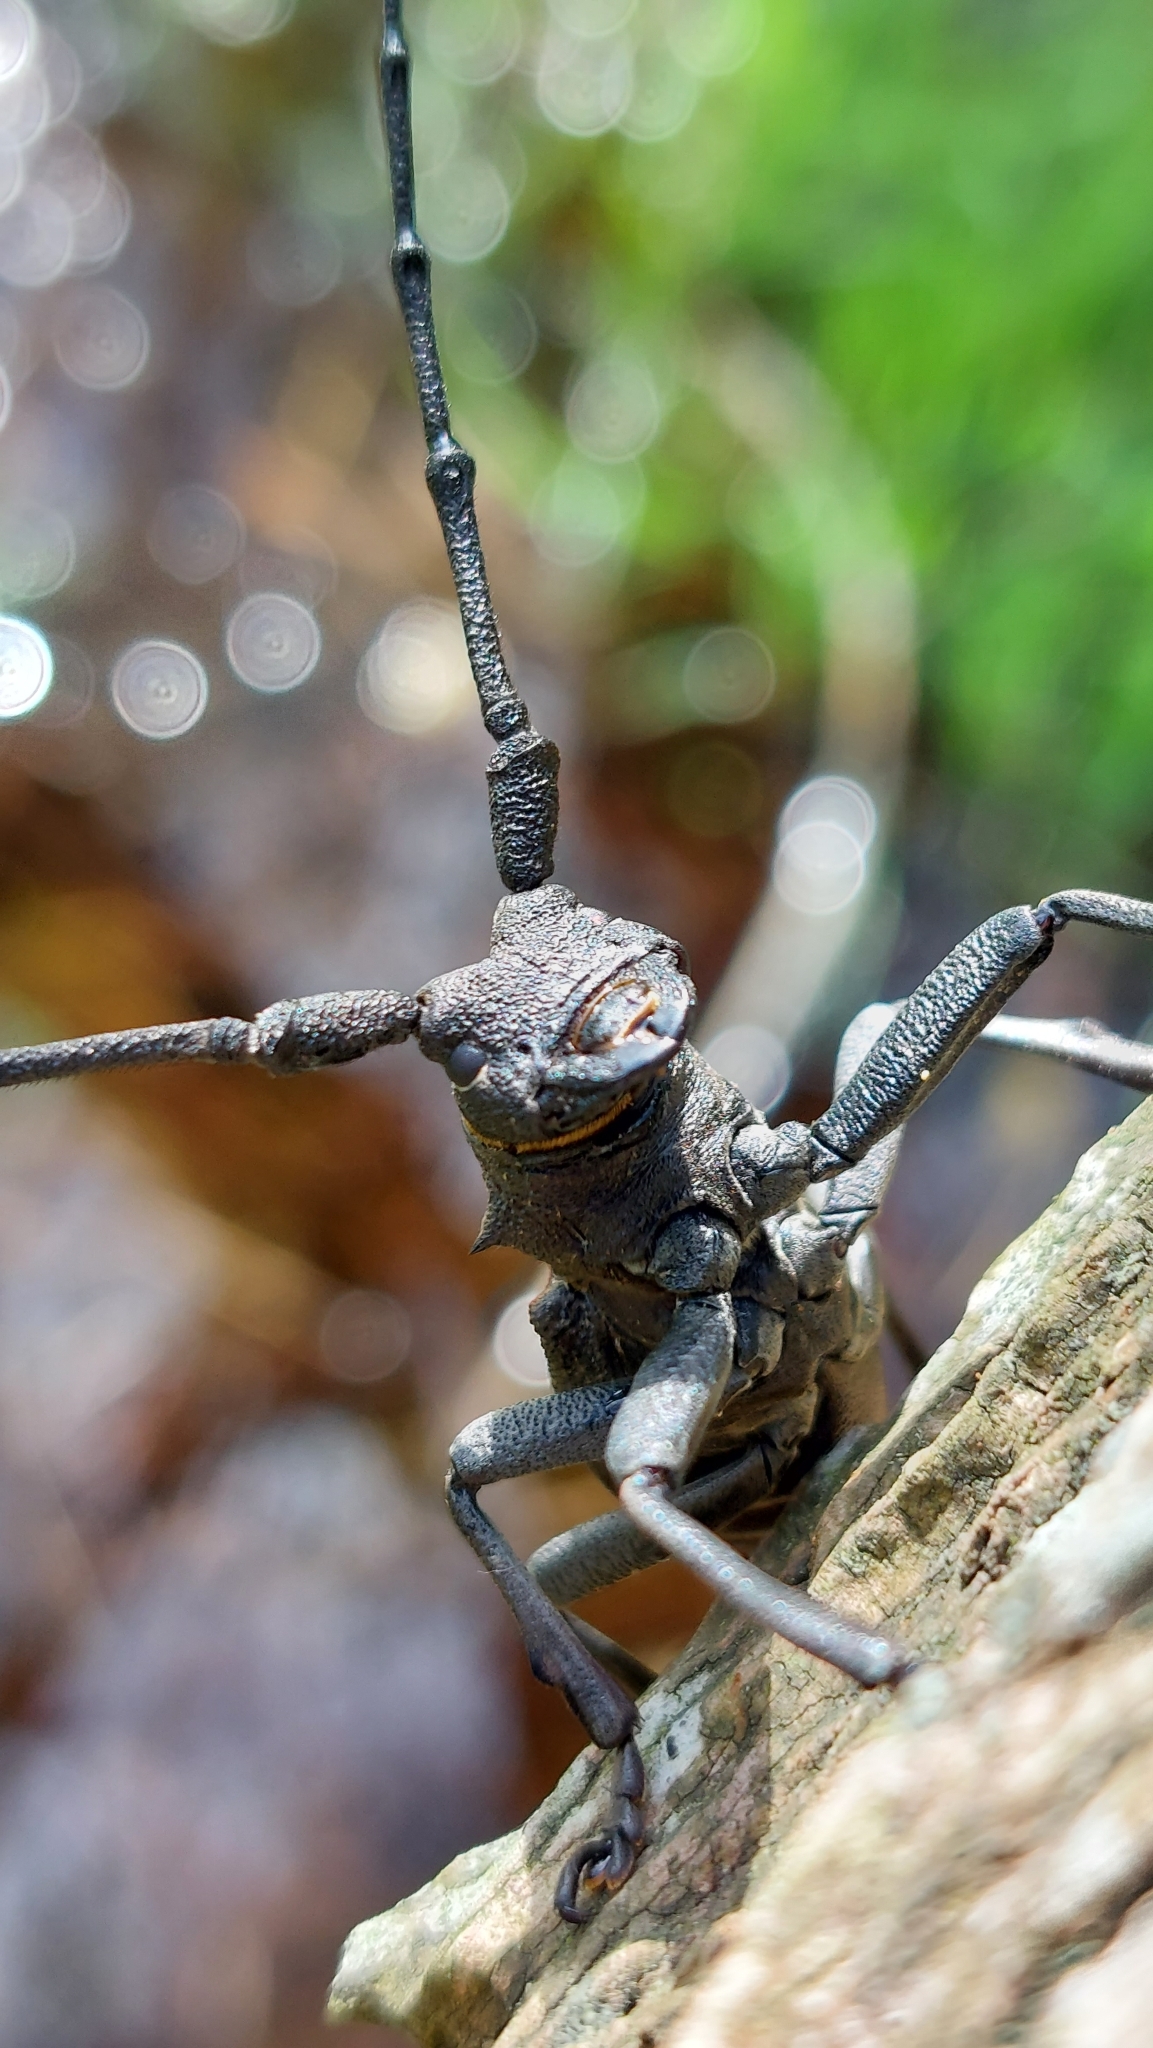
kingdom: Animalia
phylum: Arthropoda
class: Insecta
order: Coleoptera
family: Cerambycidae
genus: Morimus
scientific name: Morimus asper
